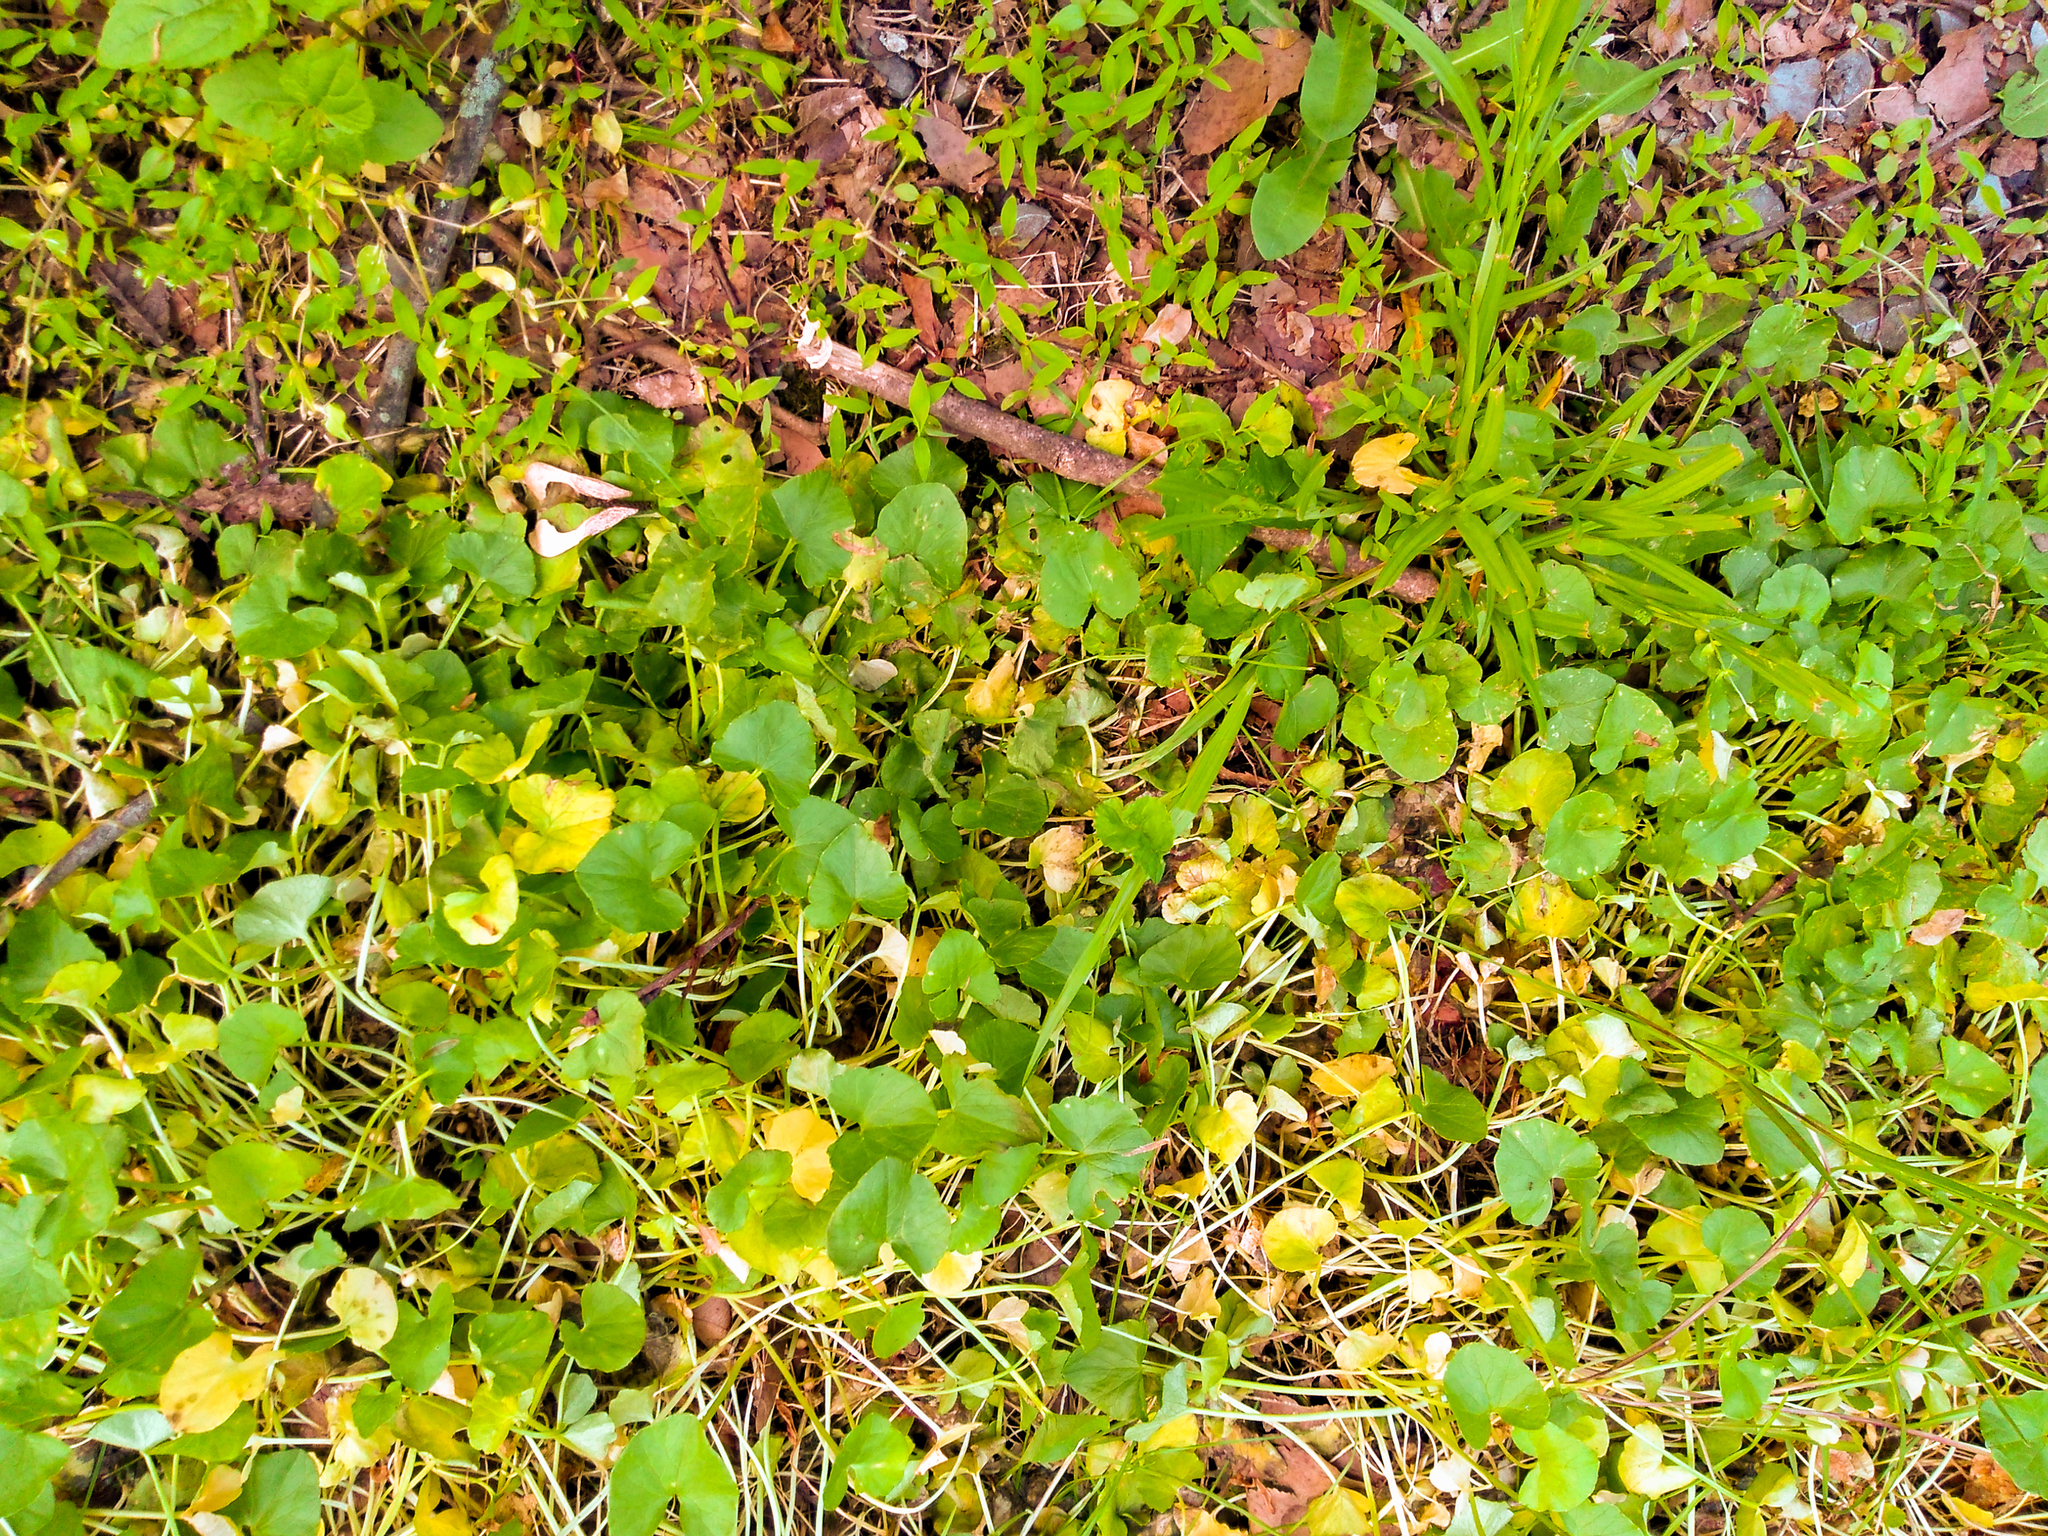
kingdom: Plantae
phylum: Tracheophyta
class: Magnoliopsida
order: Ranunculales
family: Ranunculaceae
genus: Ficaria
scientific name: Ficaria verna
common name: Lesser celandine
